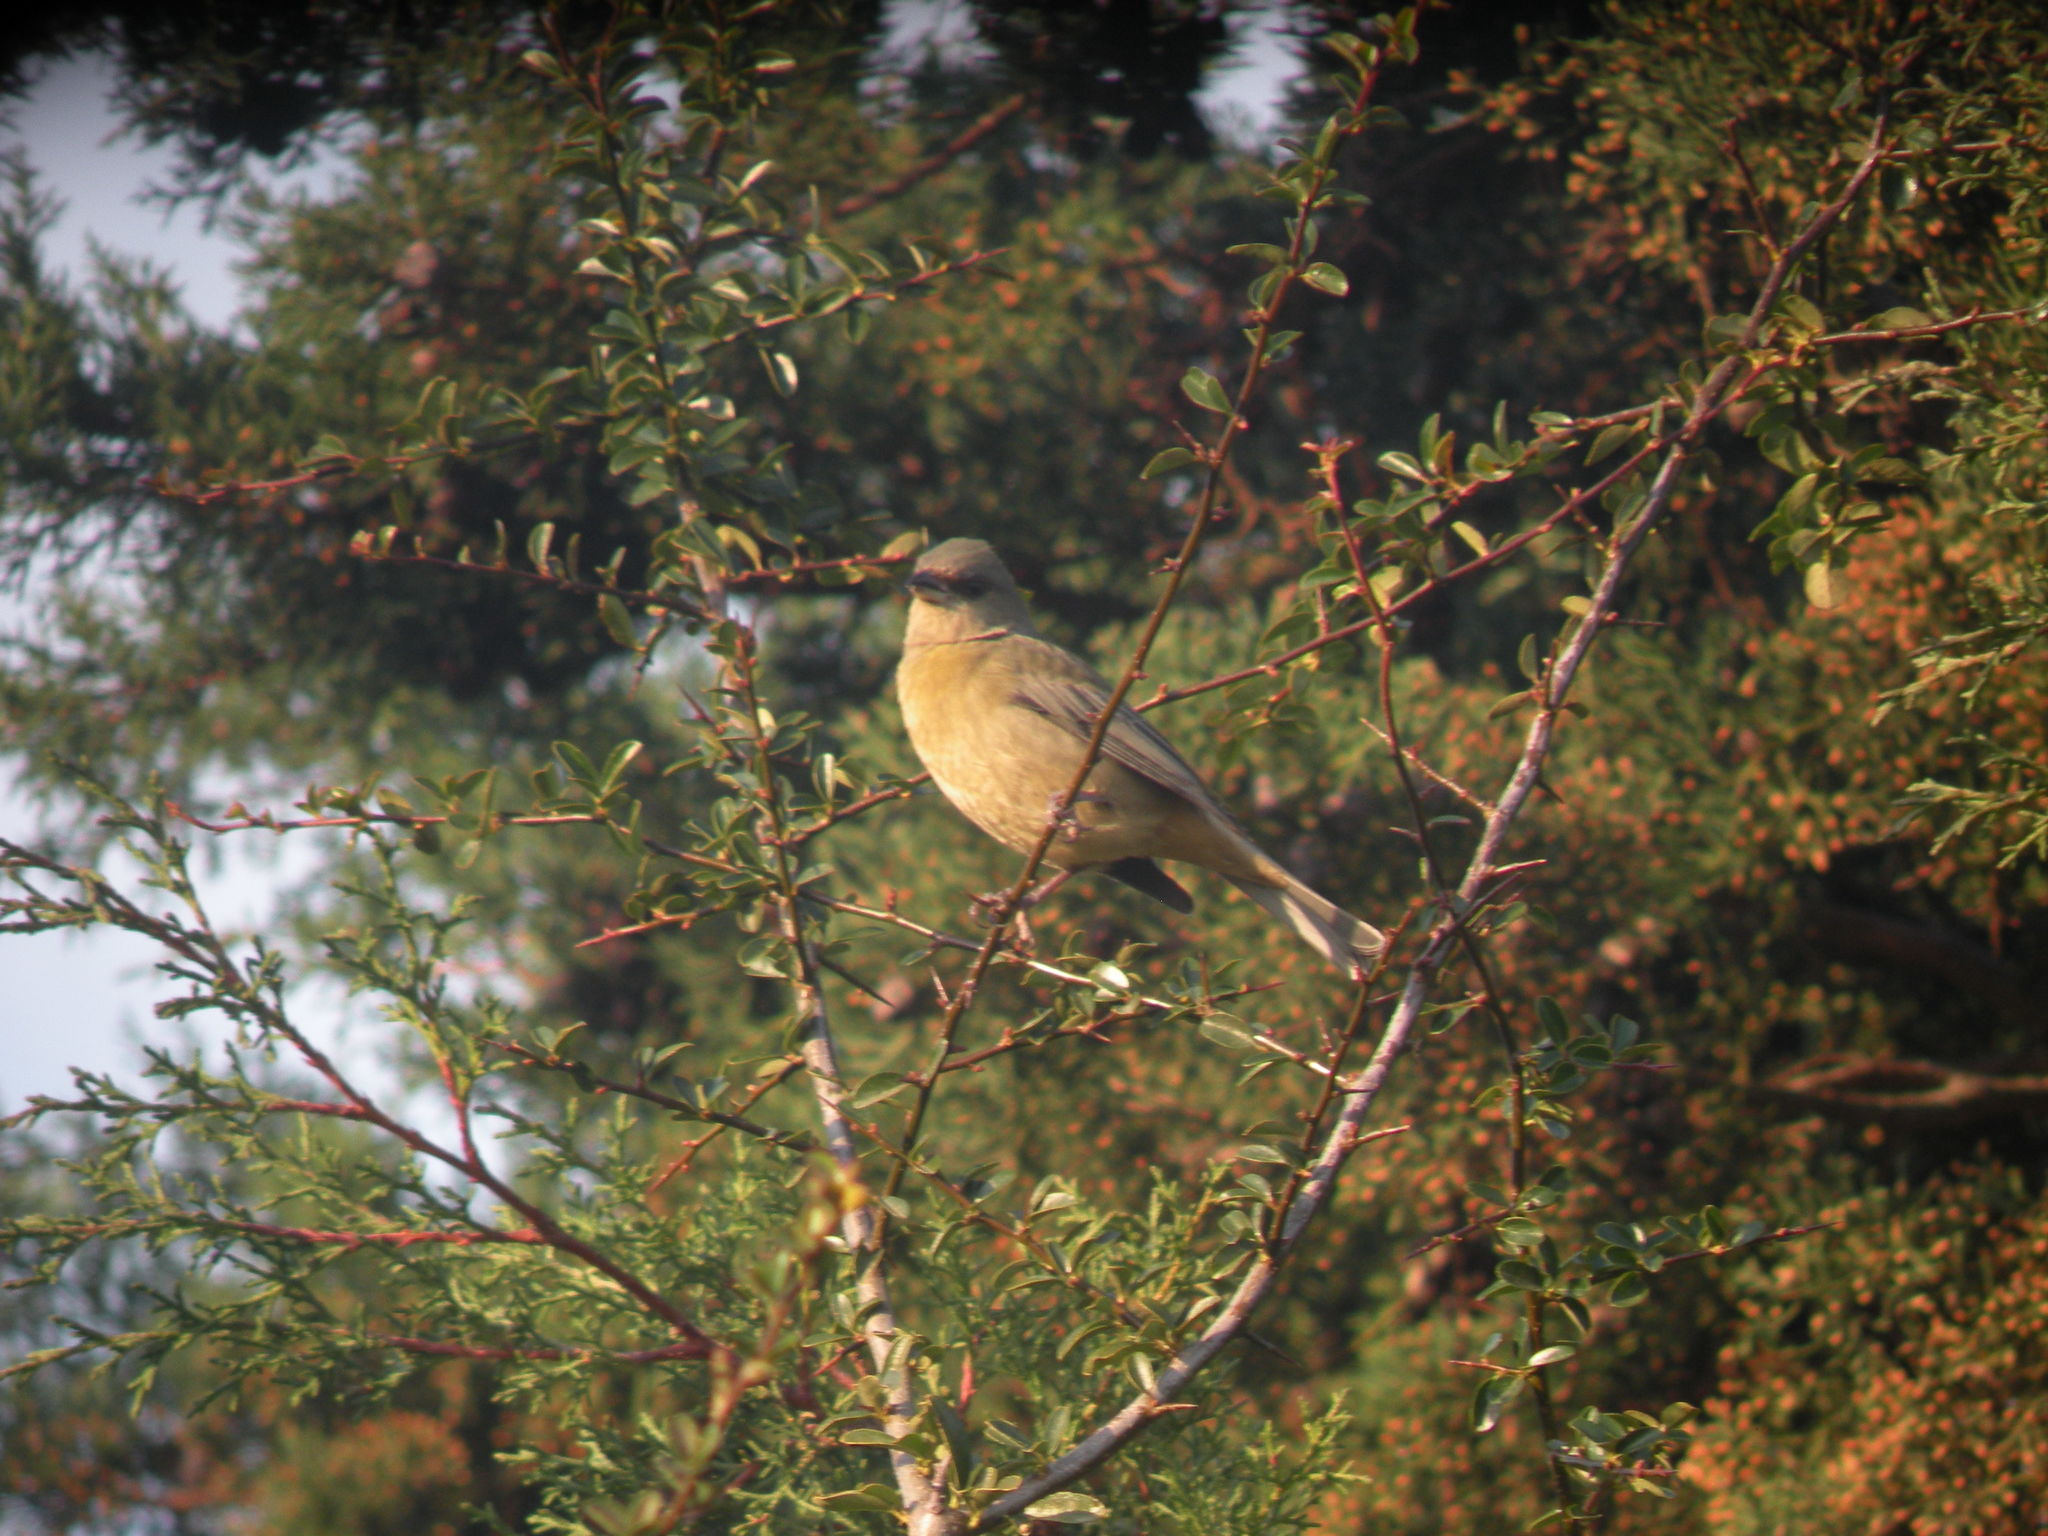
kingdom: Animalia
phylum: Chordata
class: Aves
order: Passeriformes
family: Thraupidae
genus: Rauenia
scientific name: Rauenia bonariensis
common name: Blue-and-yellow tanager
